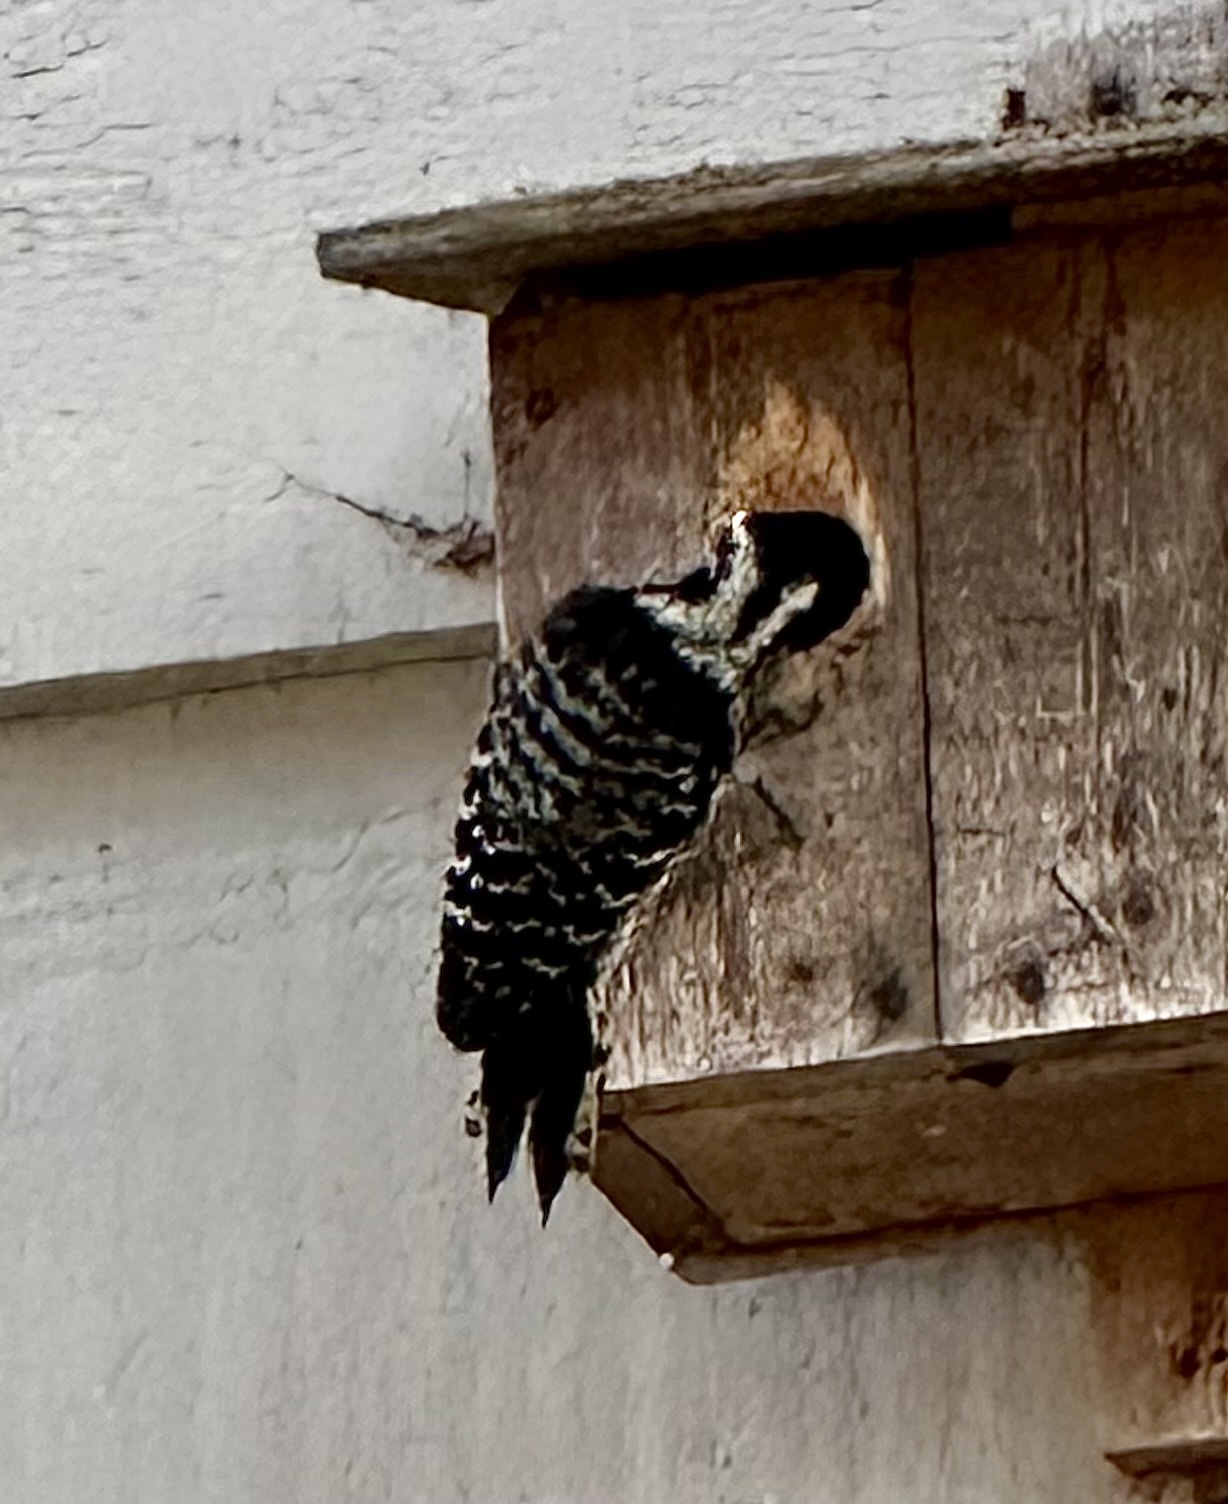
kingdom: Animalia
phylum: Chordata
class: Aves
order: Piciformes
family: Picidae
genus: Dryobates
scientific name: Dryobates nuttallii
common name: Nuttall's woodpecker
